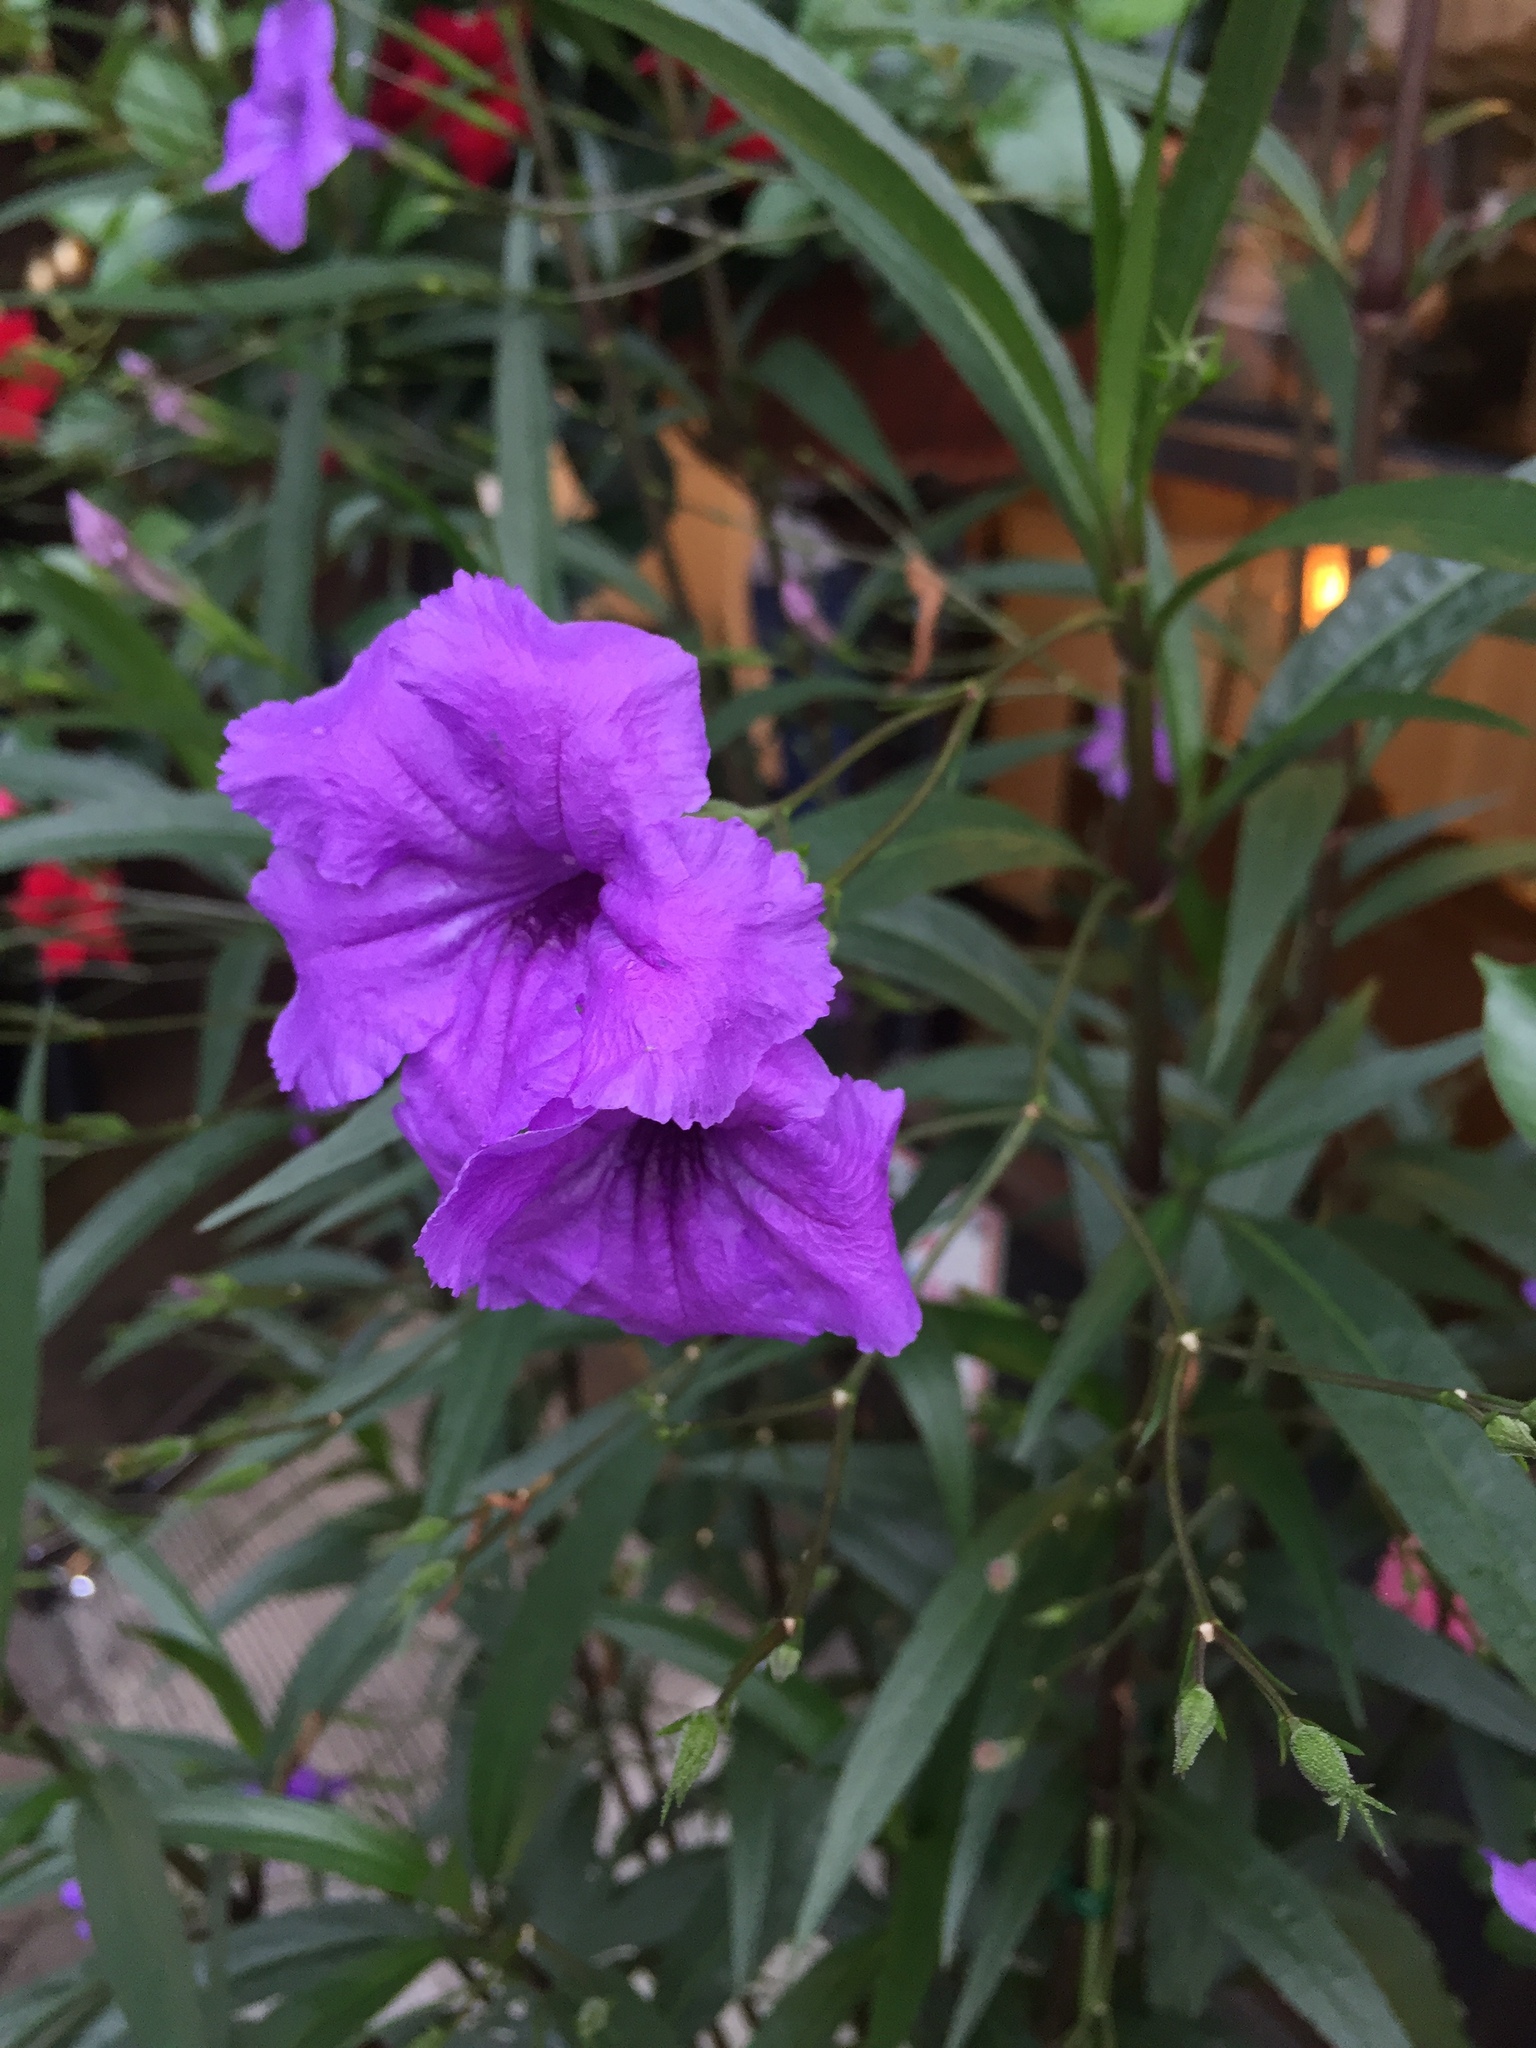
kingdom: Plantae
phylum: Tracheophyta
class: Magnoliopsida
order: Lamiales
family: Acanthaceae
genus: Ruellia
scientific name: Ruellia simplex
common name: Softseed wild petunia
